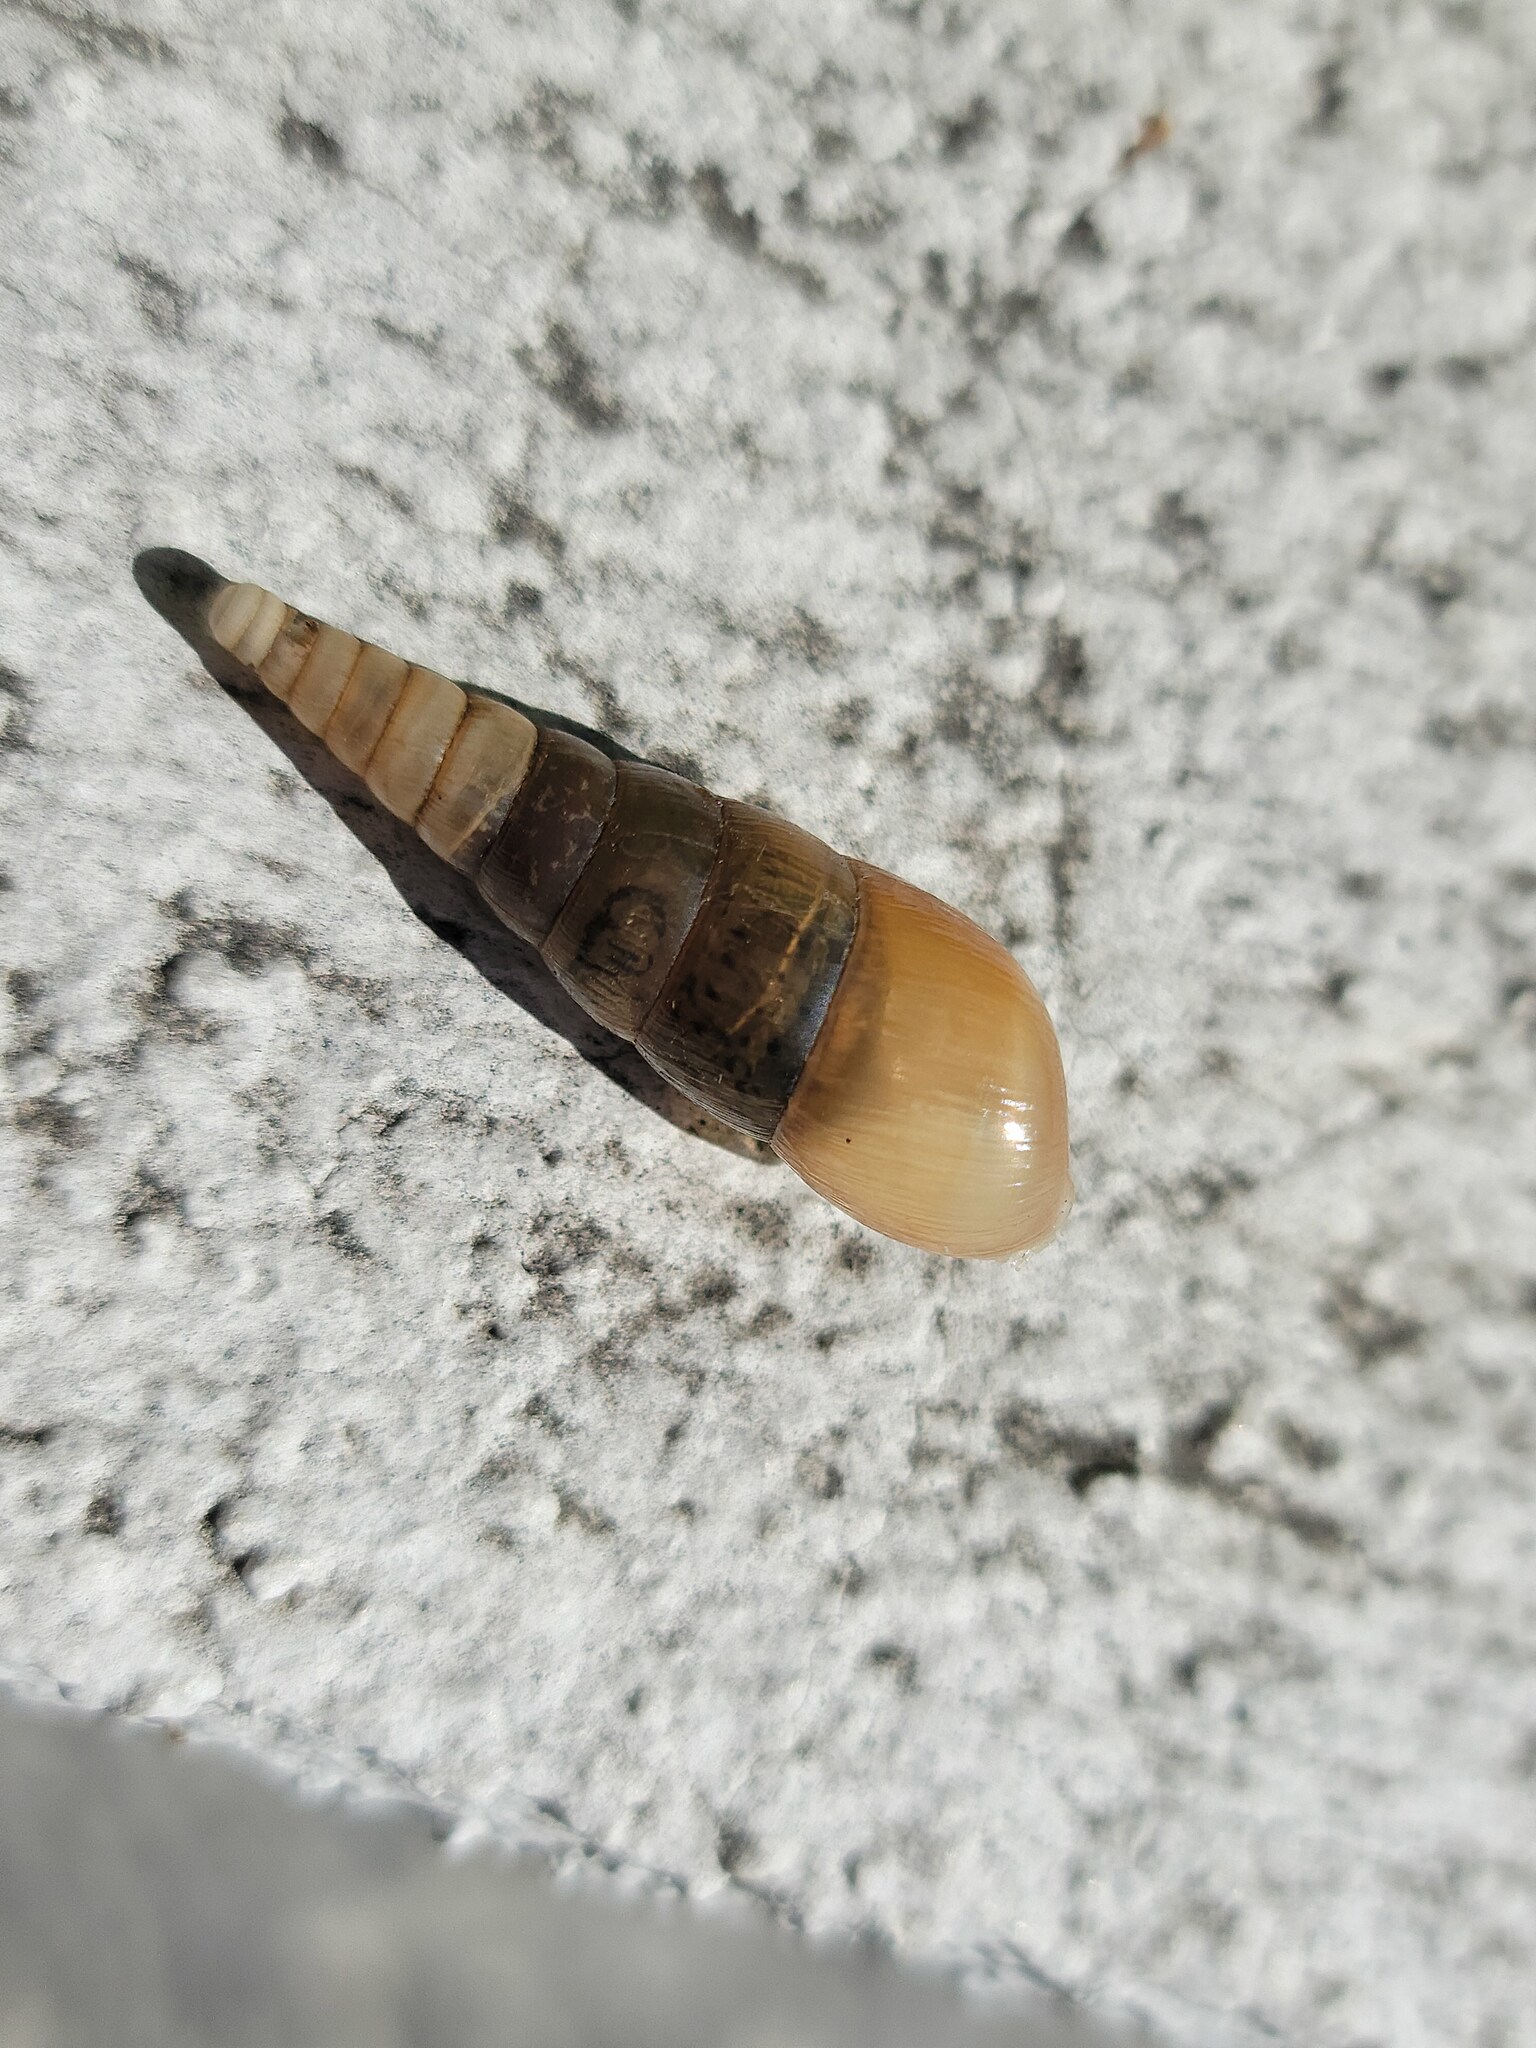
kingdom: Animalia
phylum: Mollusca
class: Gastropoda
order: Stylommatophora
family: Achatinidae
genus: Rumina
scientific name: Rumina decollata
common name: Decollate snail
